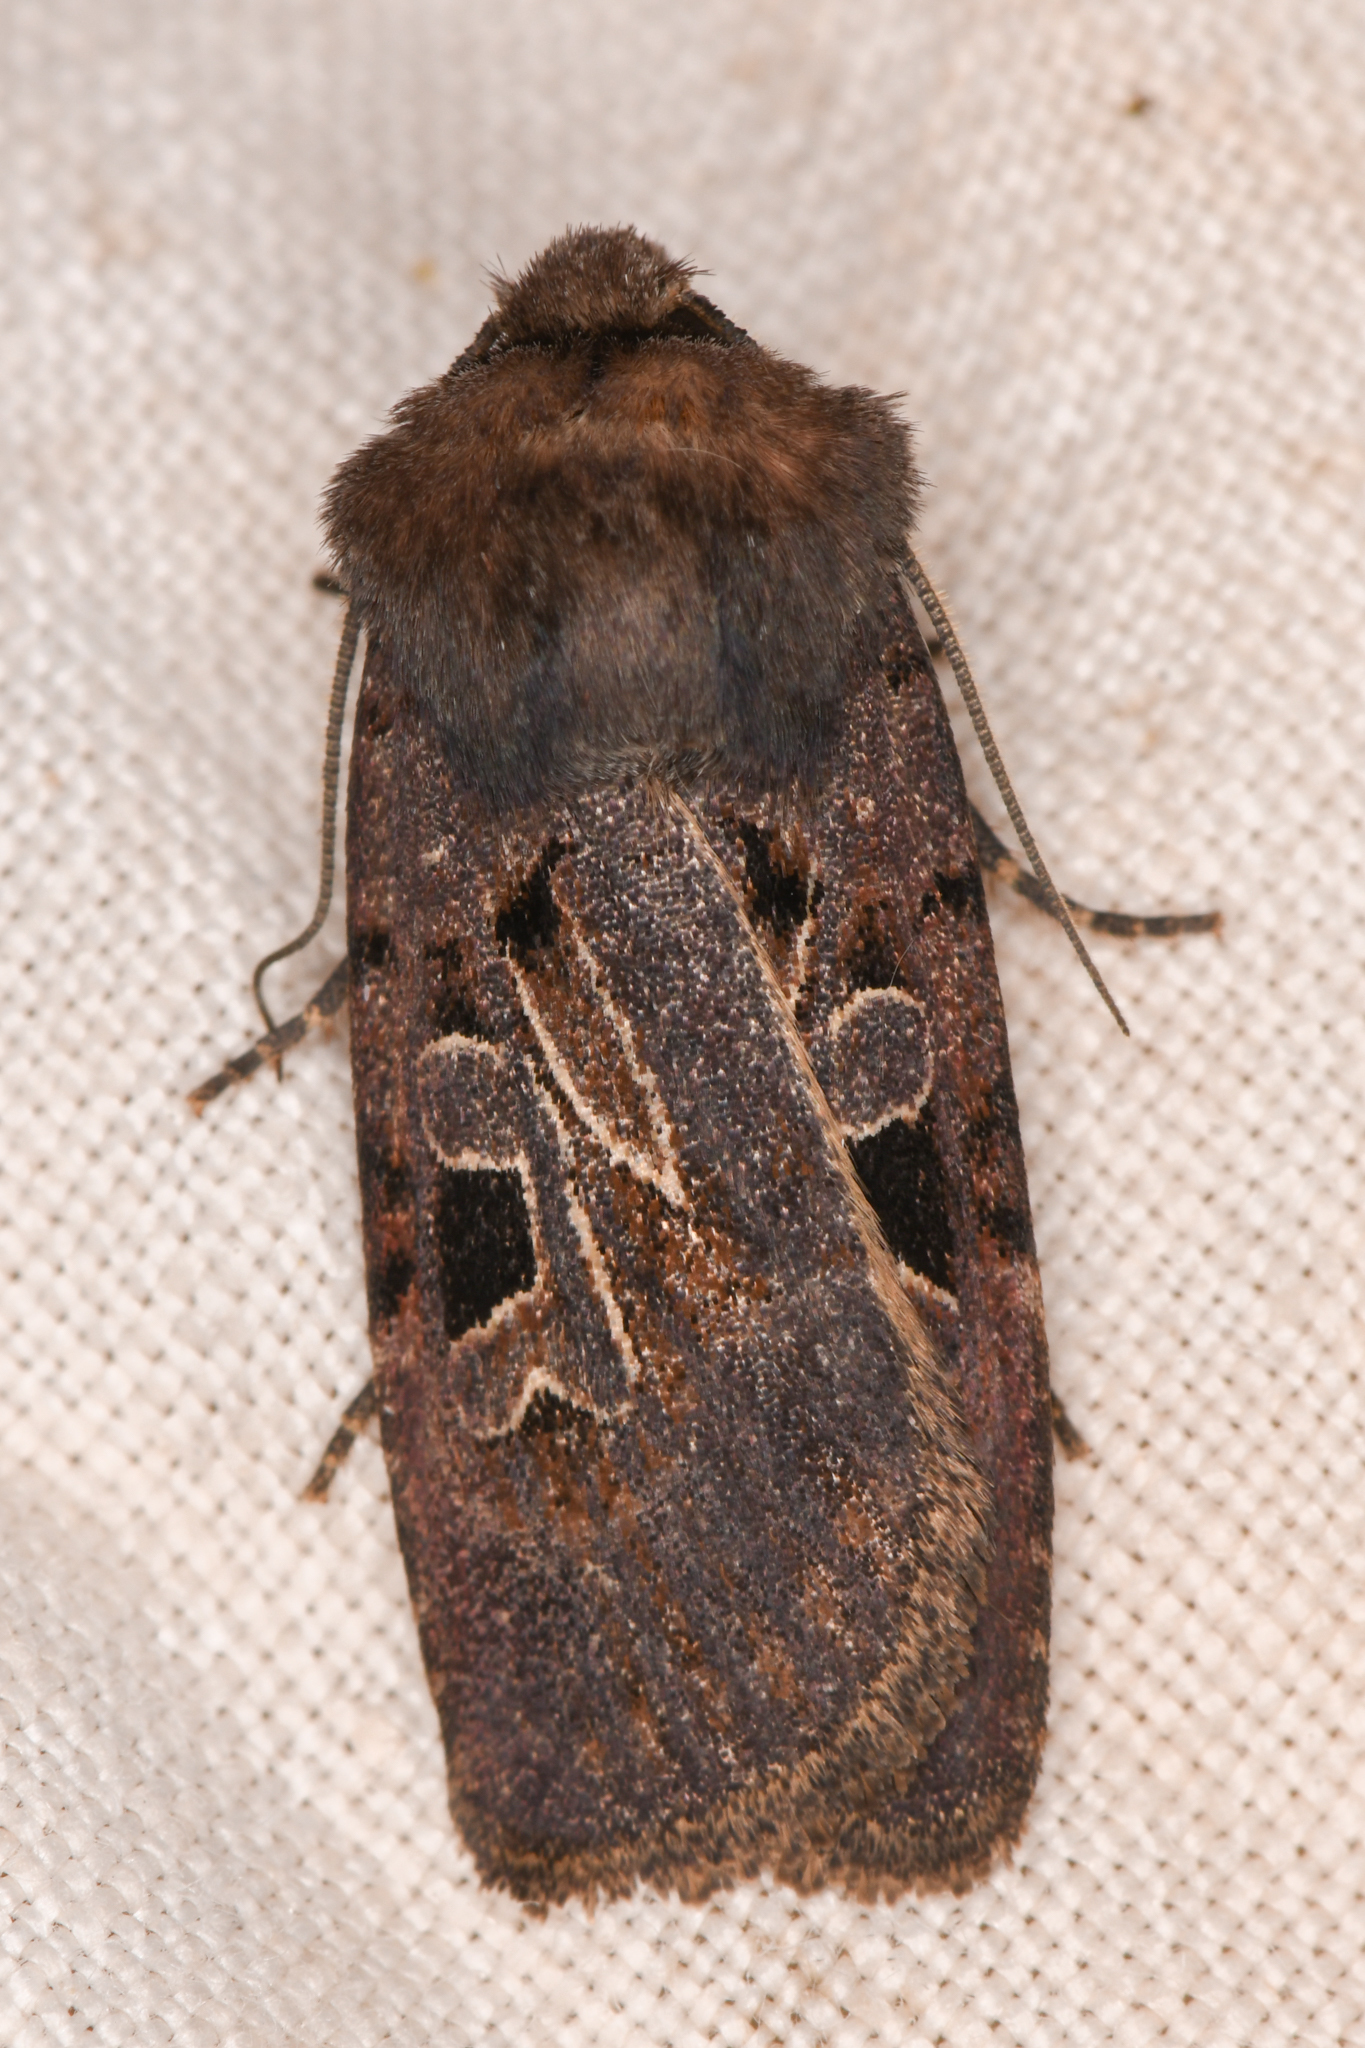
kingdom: Animalia
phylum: Arthropoda
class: Insecta
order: Lepidoptera
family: Noctuidae
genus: Chersotis
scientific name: Chersotis juncta
